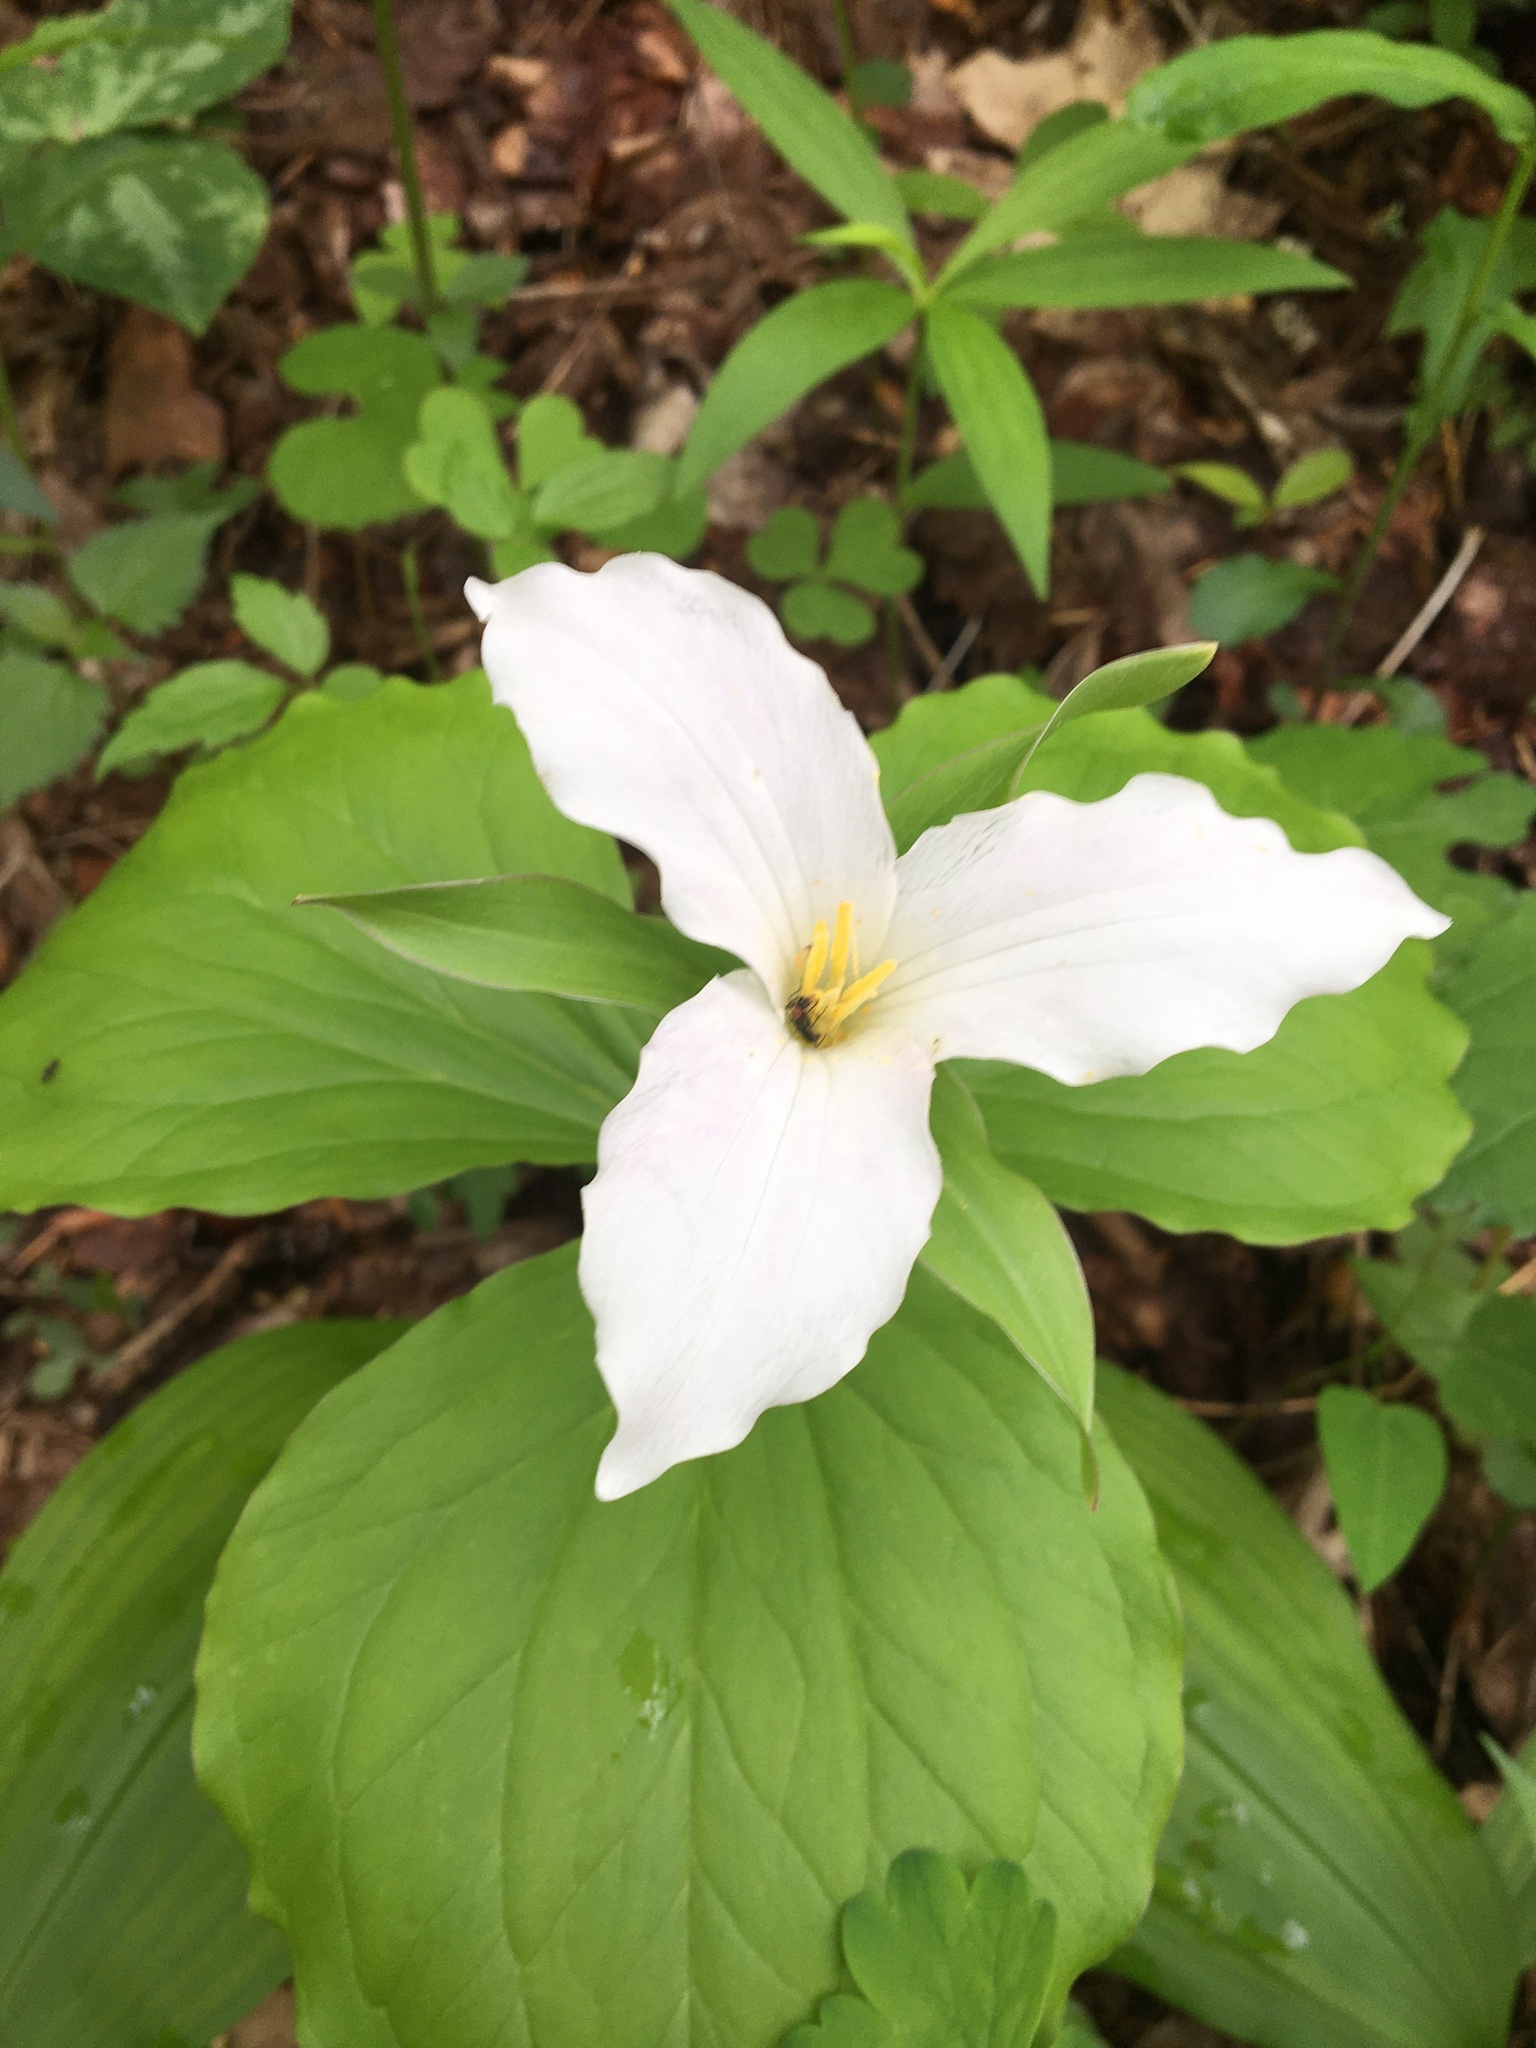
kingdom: Plantae
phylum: Tracheophyta
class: Liliopsida
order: Liliales
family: Melanthiaceae
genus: Trillium
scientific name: Trillium grandiflorum
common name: Great white trillium
